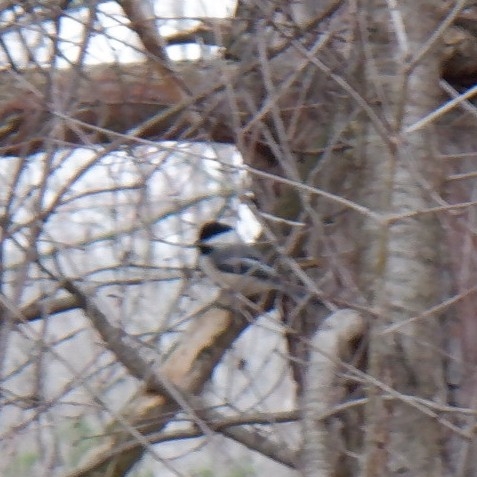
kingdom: Animalia
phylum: Chordata
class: Aves
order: Passeriformes
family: Paridae
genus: Poecile
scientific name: Poecile atricapillus
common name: Black-capped chickadee
